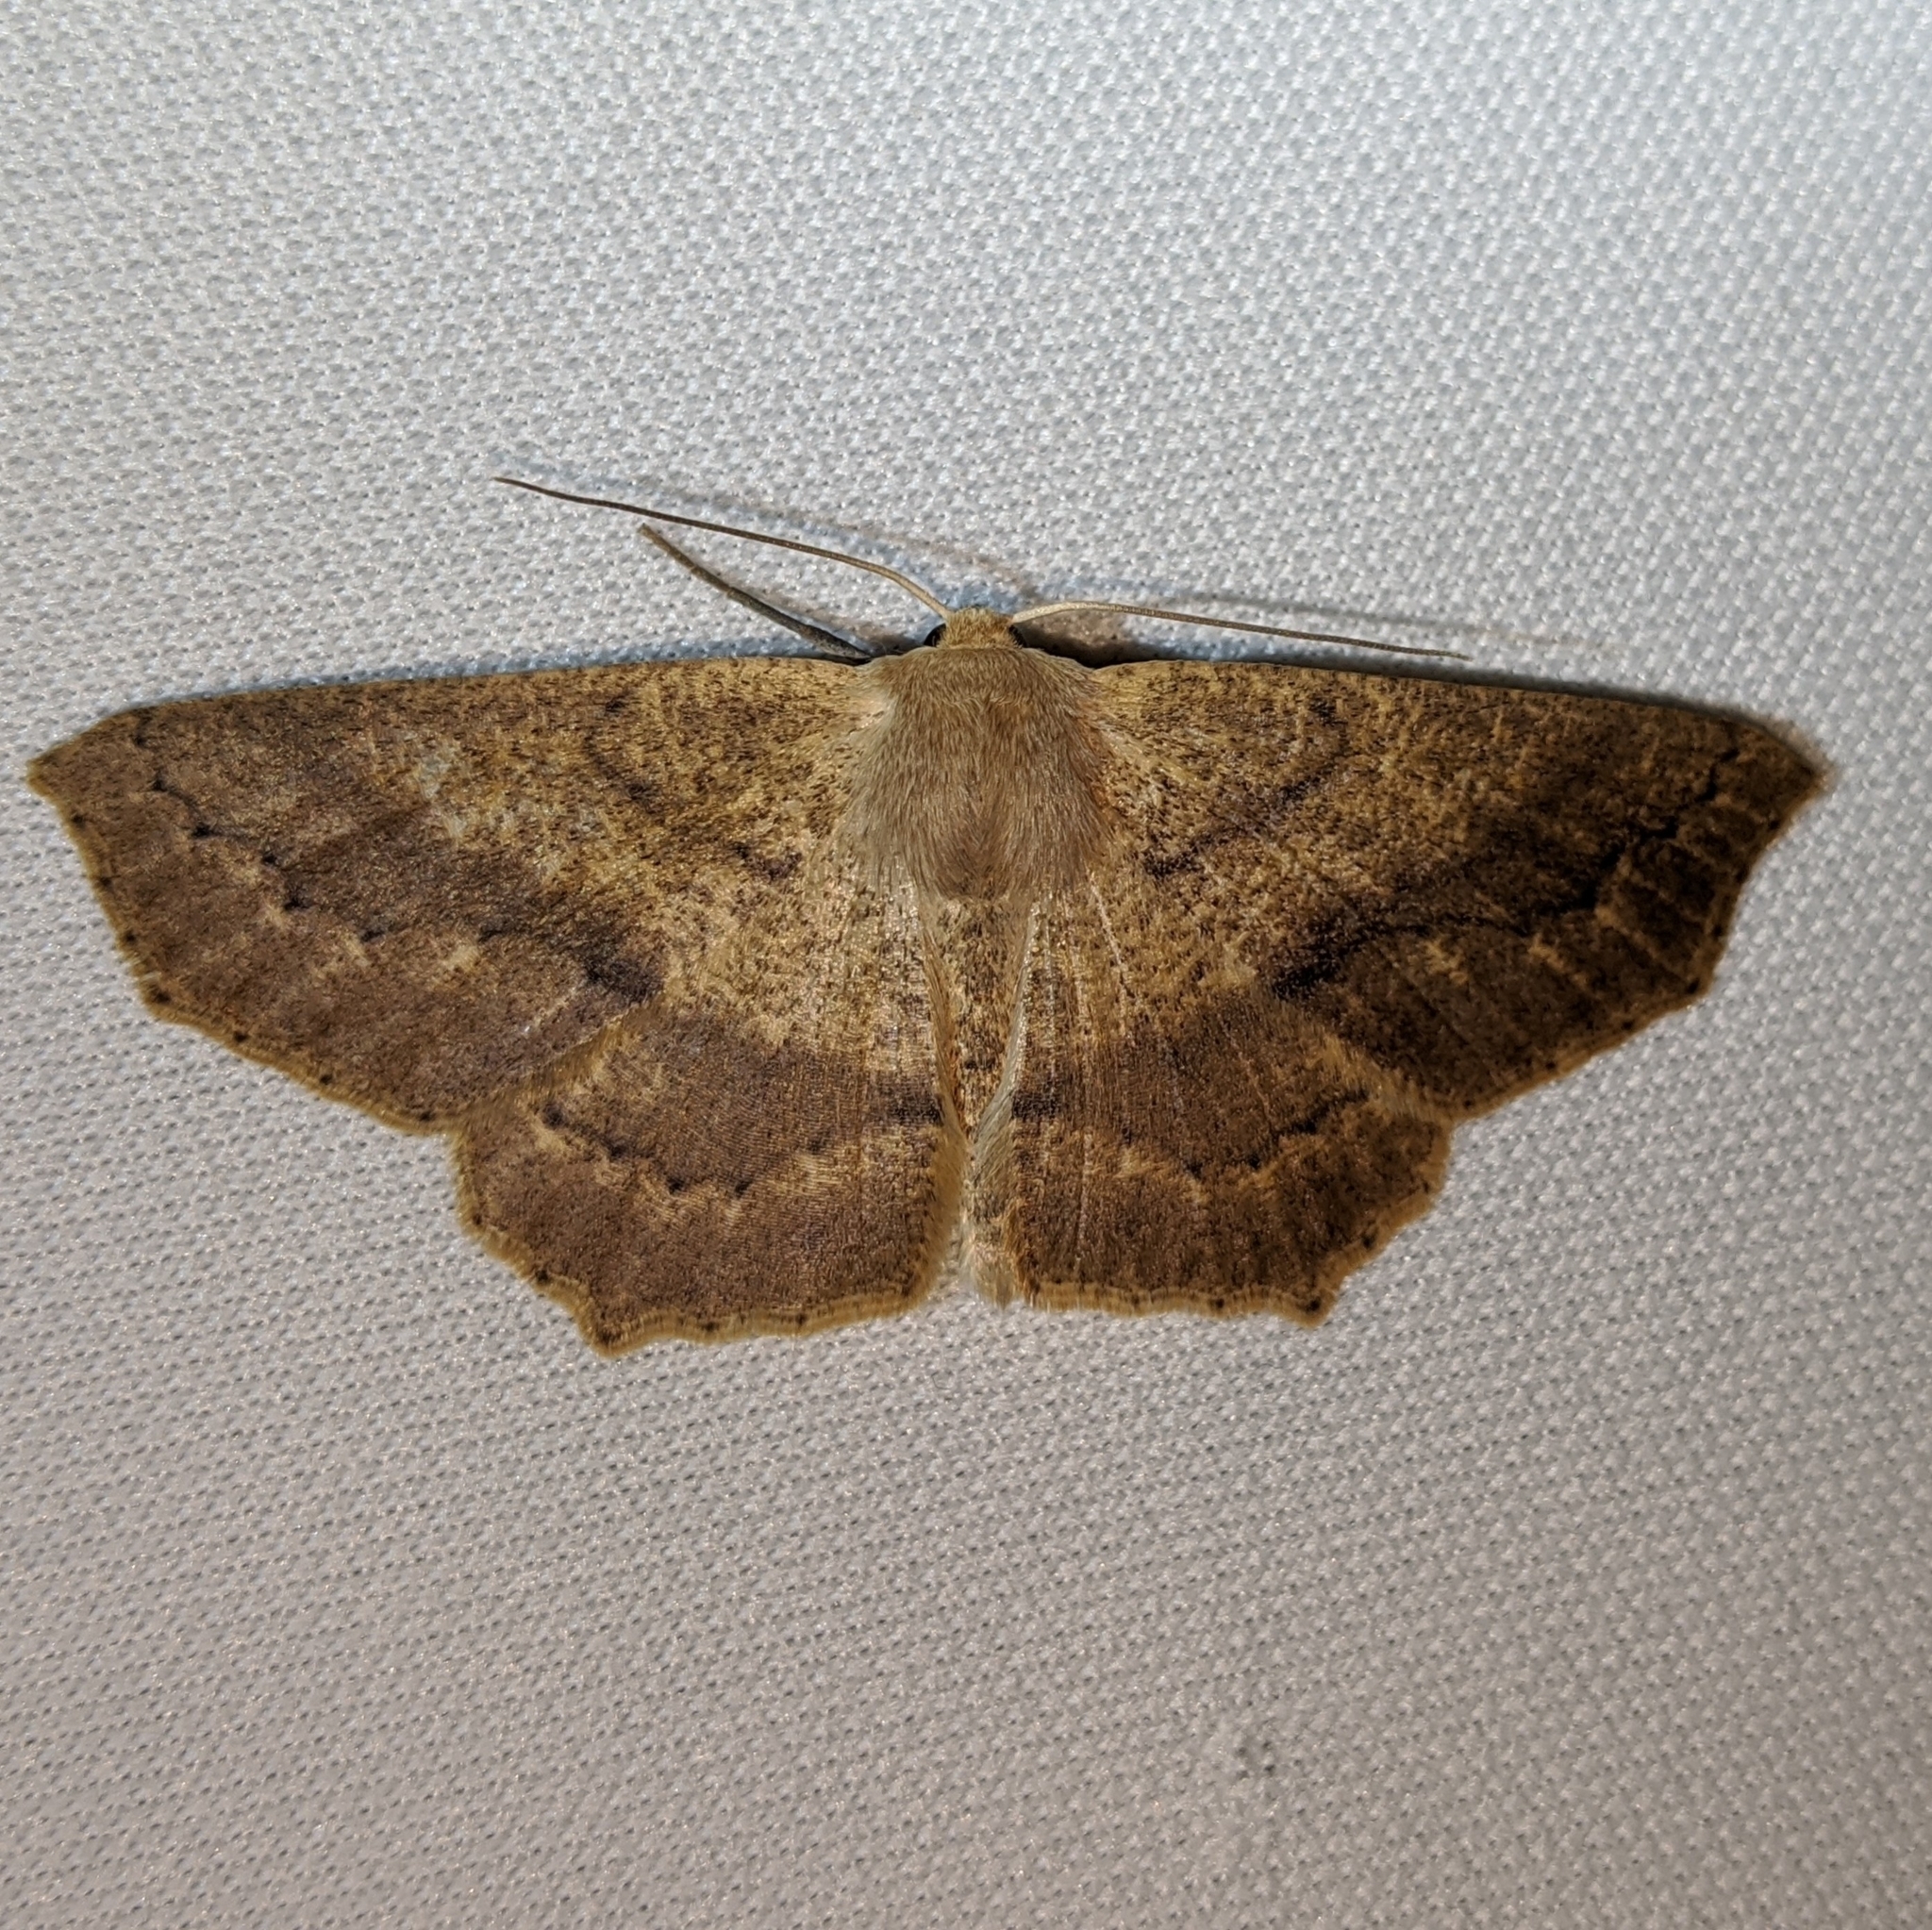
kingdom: Animalia
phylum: Arthropoda
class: Insecta
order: Lepidoptera
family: Geometridae
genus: Sabulodes
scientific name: Sabulodes aegrotata
